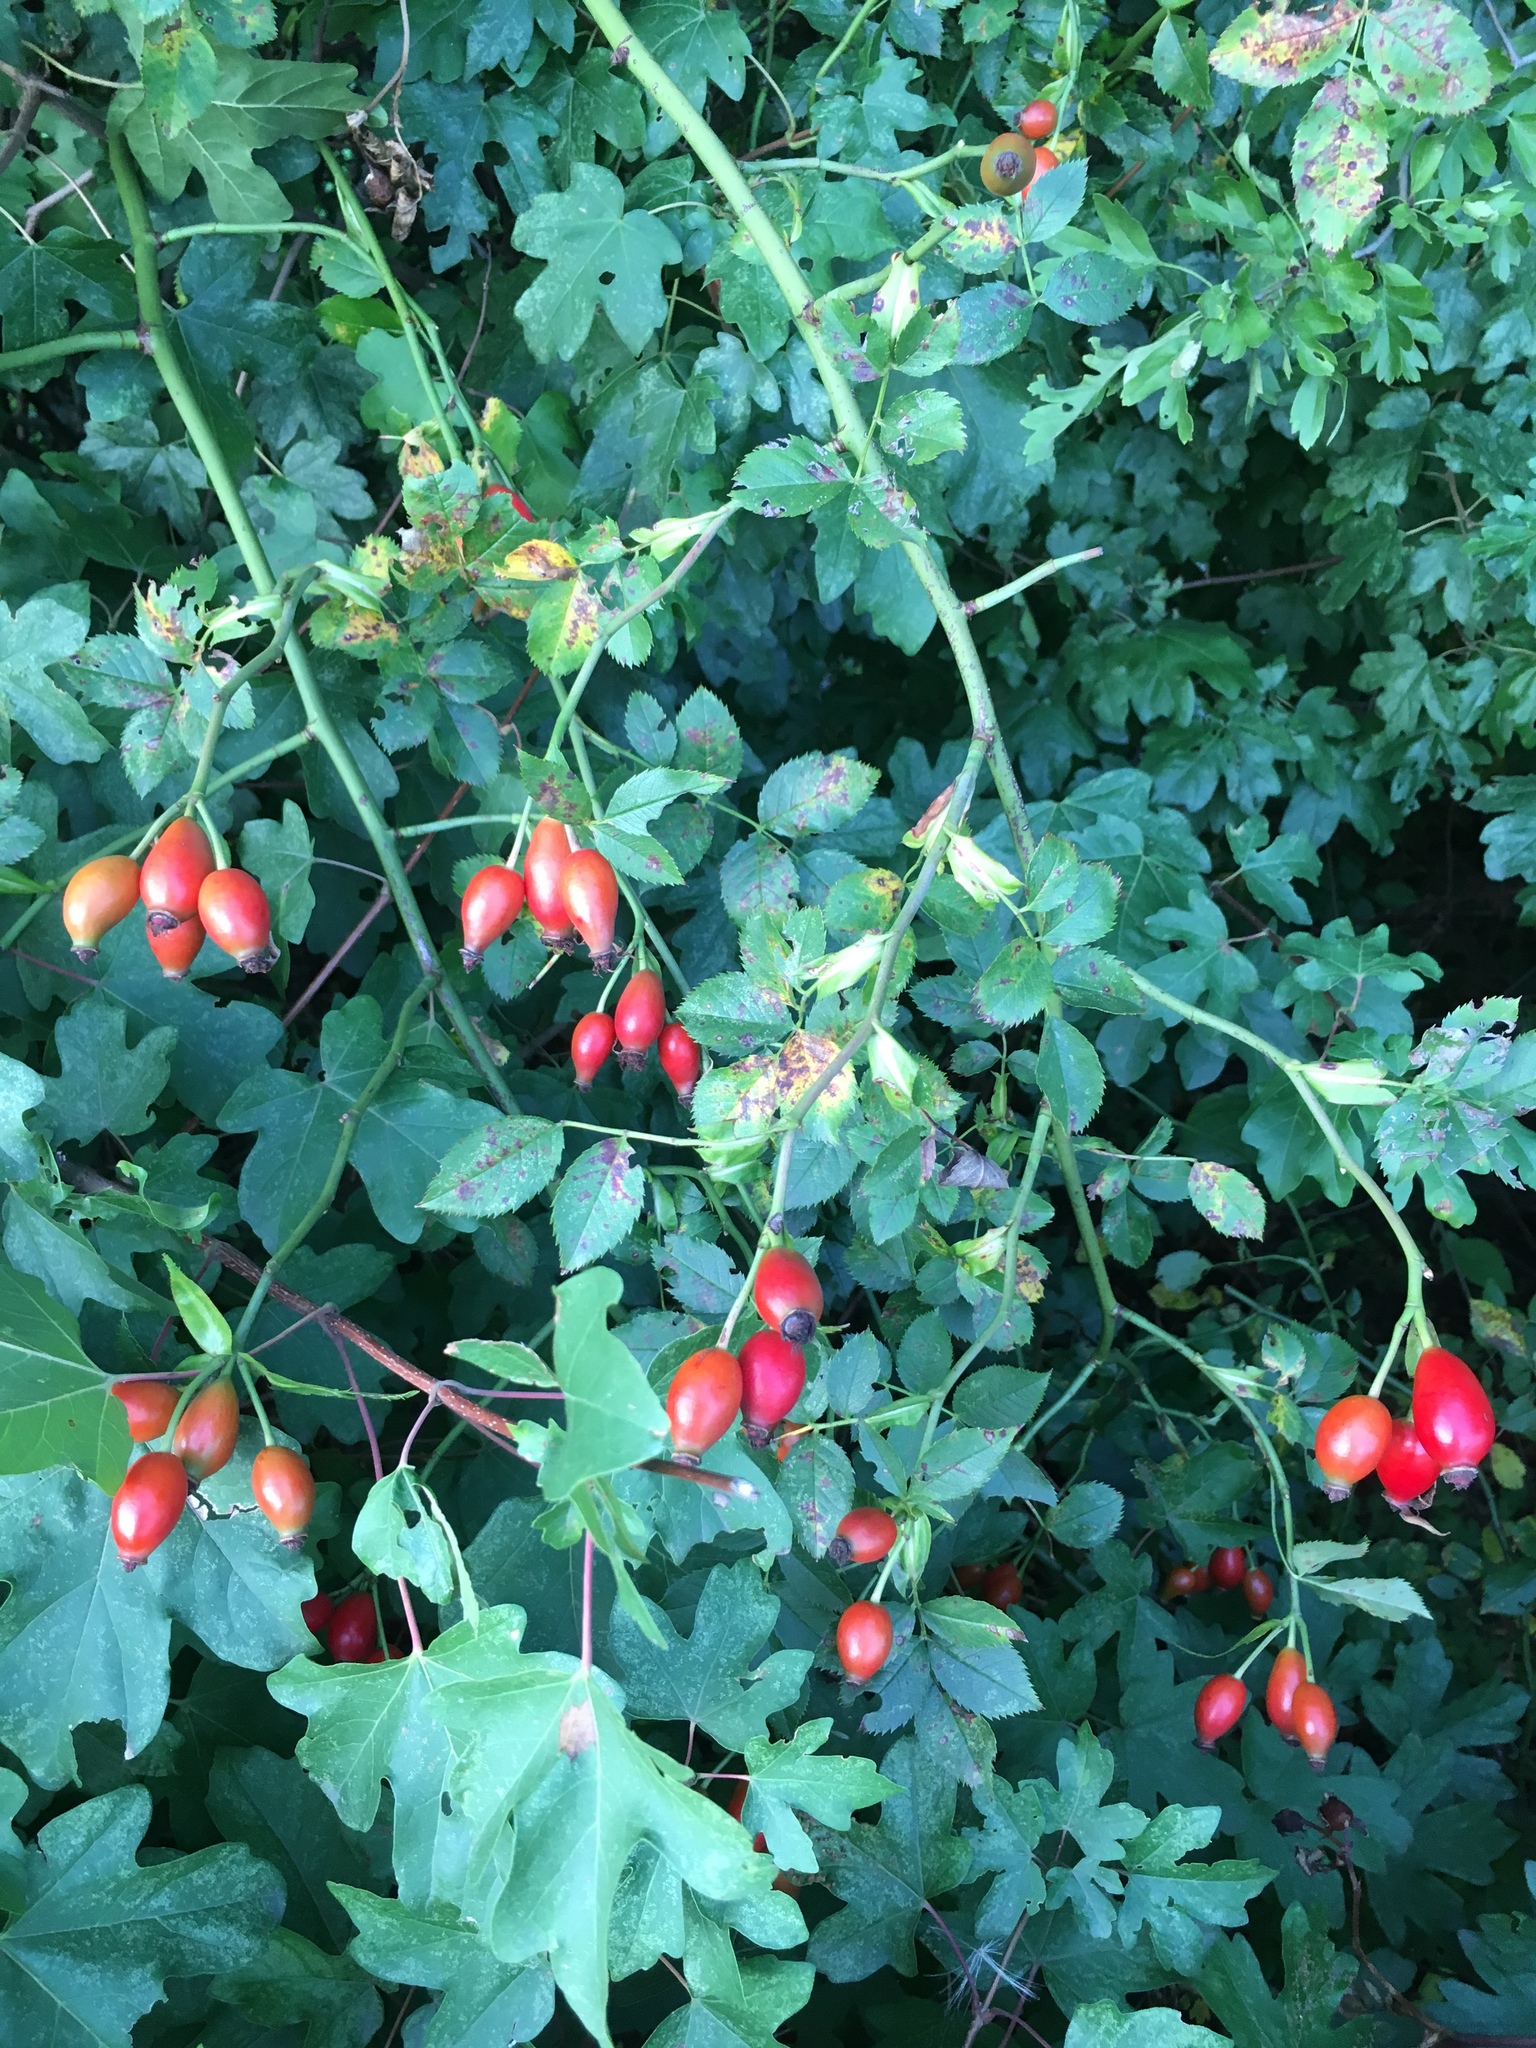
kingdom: Plantae
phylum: Tracheophyta
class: Magnoliopsida
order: Rosales
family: Rosaceae
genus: Rosa
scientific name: Rosa canina
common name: Dog rose
